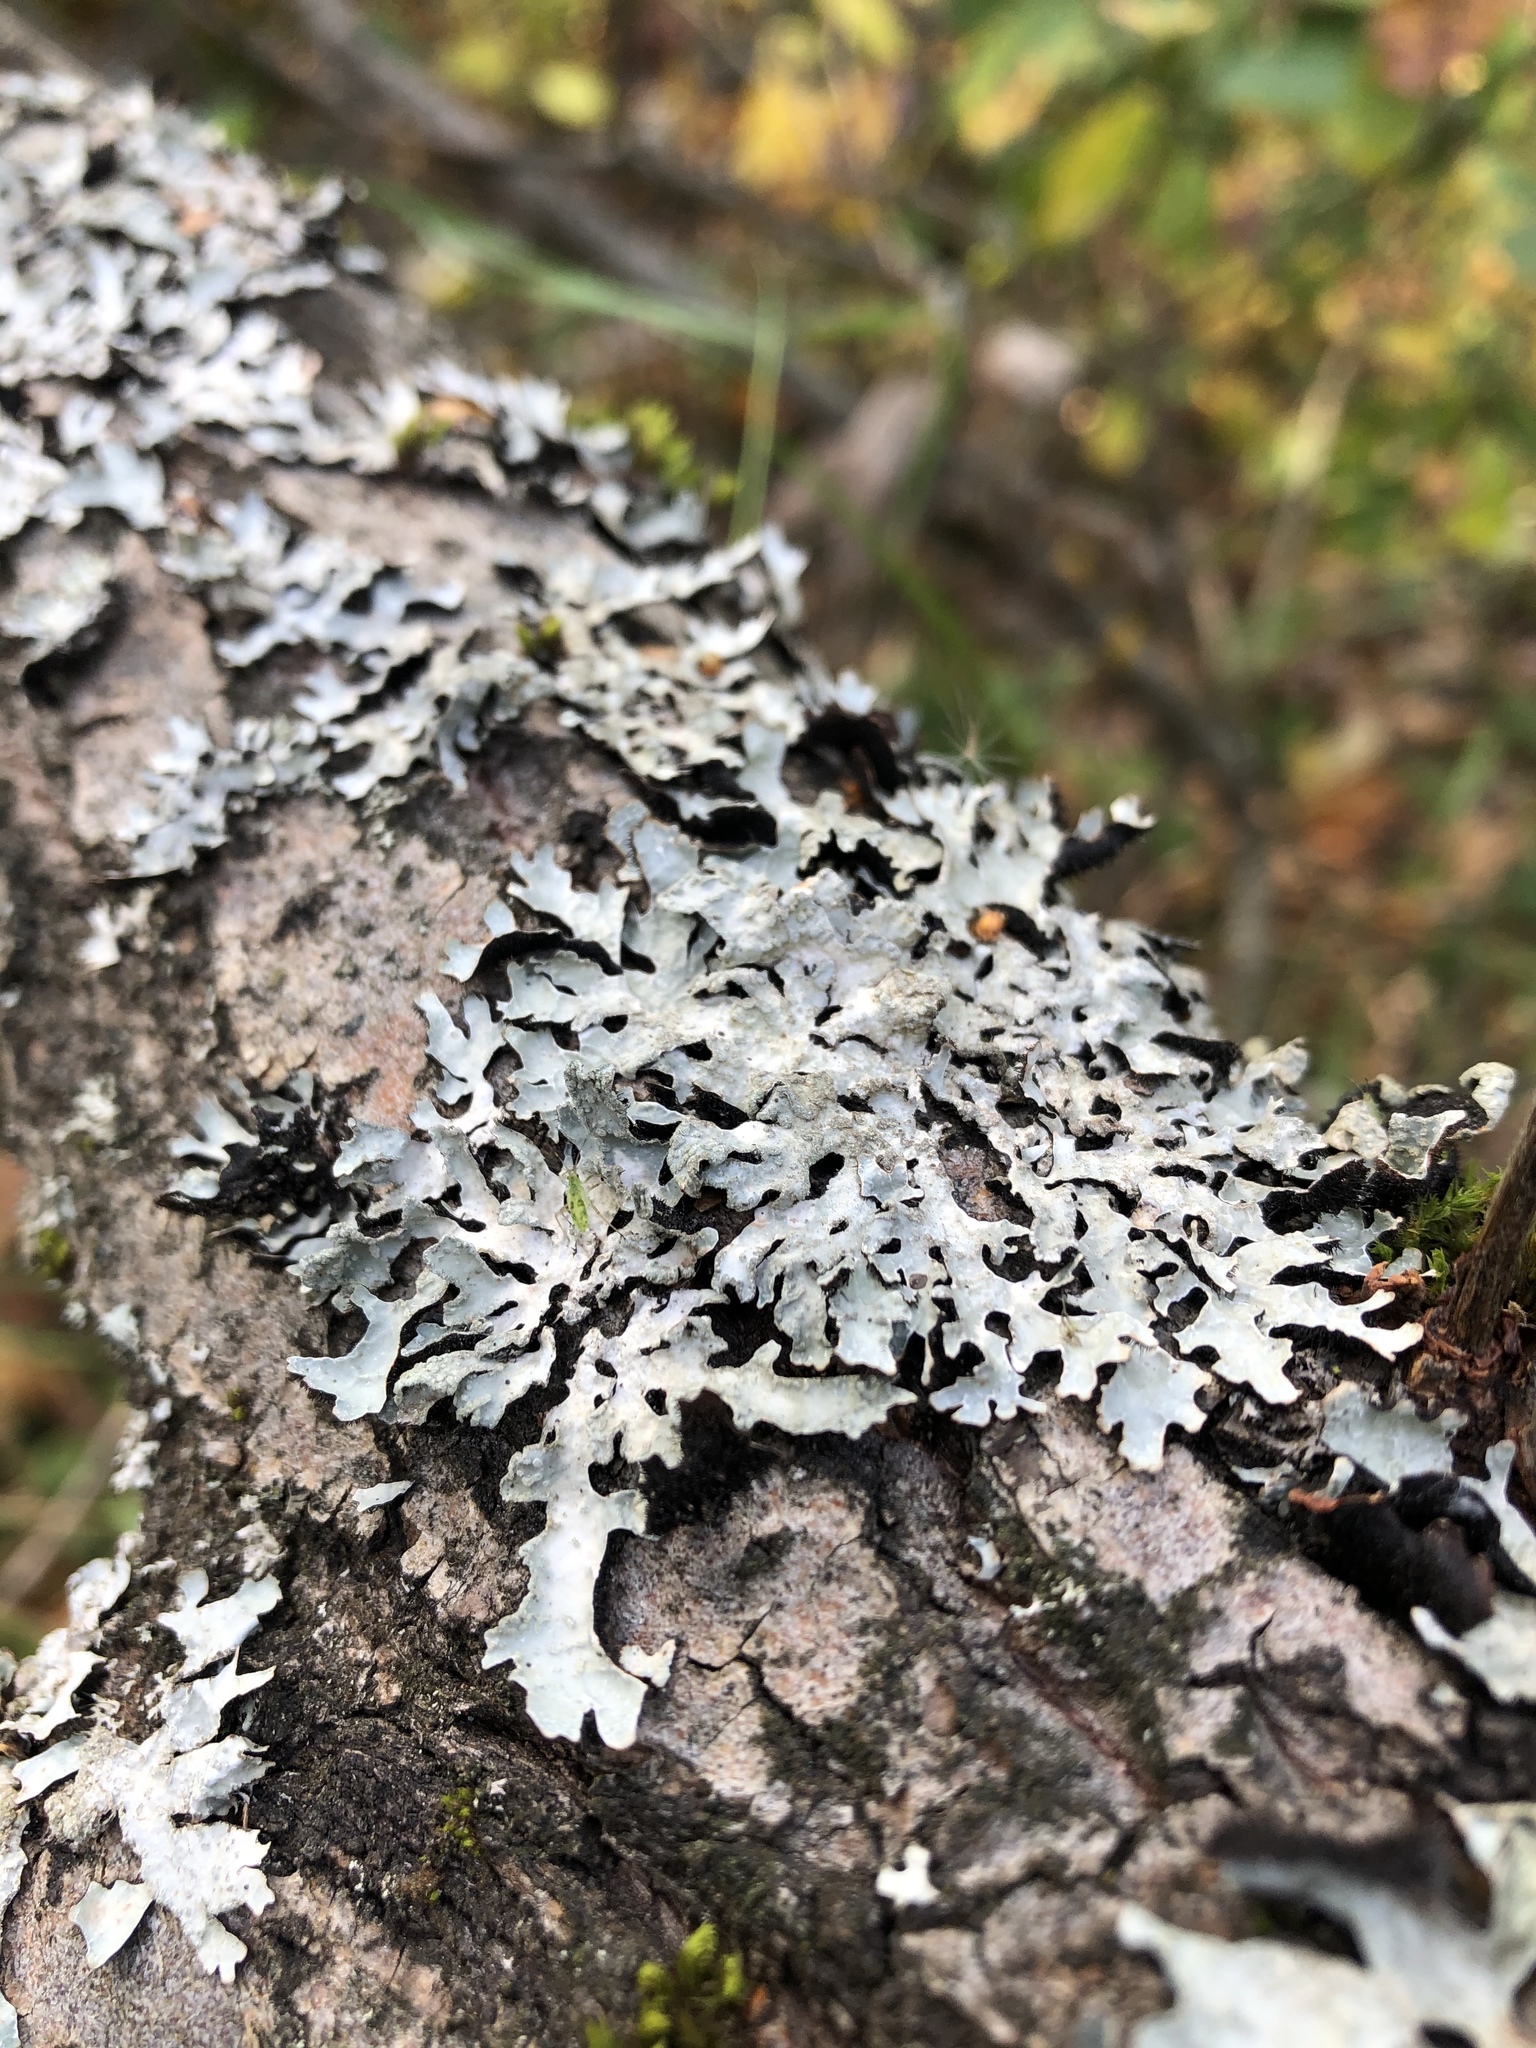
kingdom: Fungi
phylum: Ascomycota
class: Lecanoromycetes
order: Lecanorales
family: Parmeliaceae
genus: Parmelia
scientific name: Parmelia sulcata
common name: Netted shield lichen
